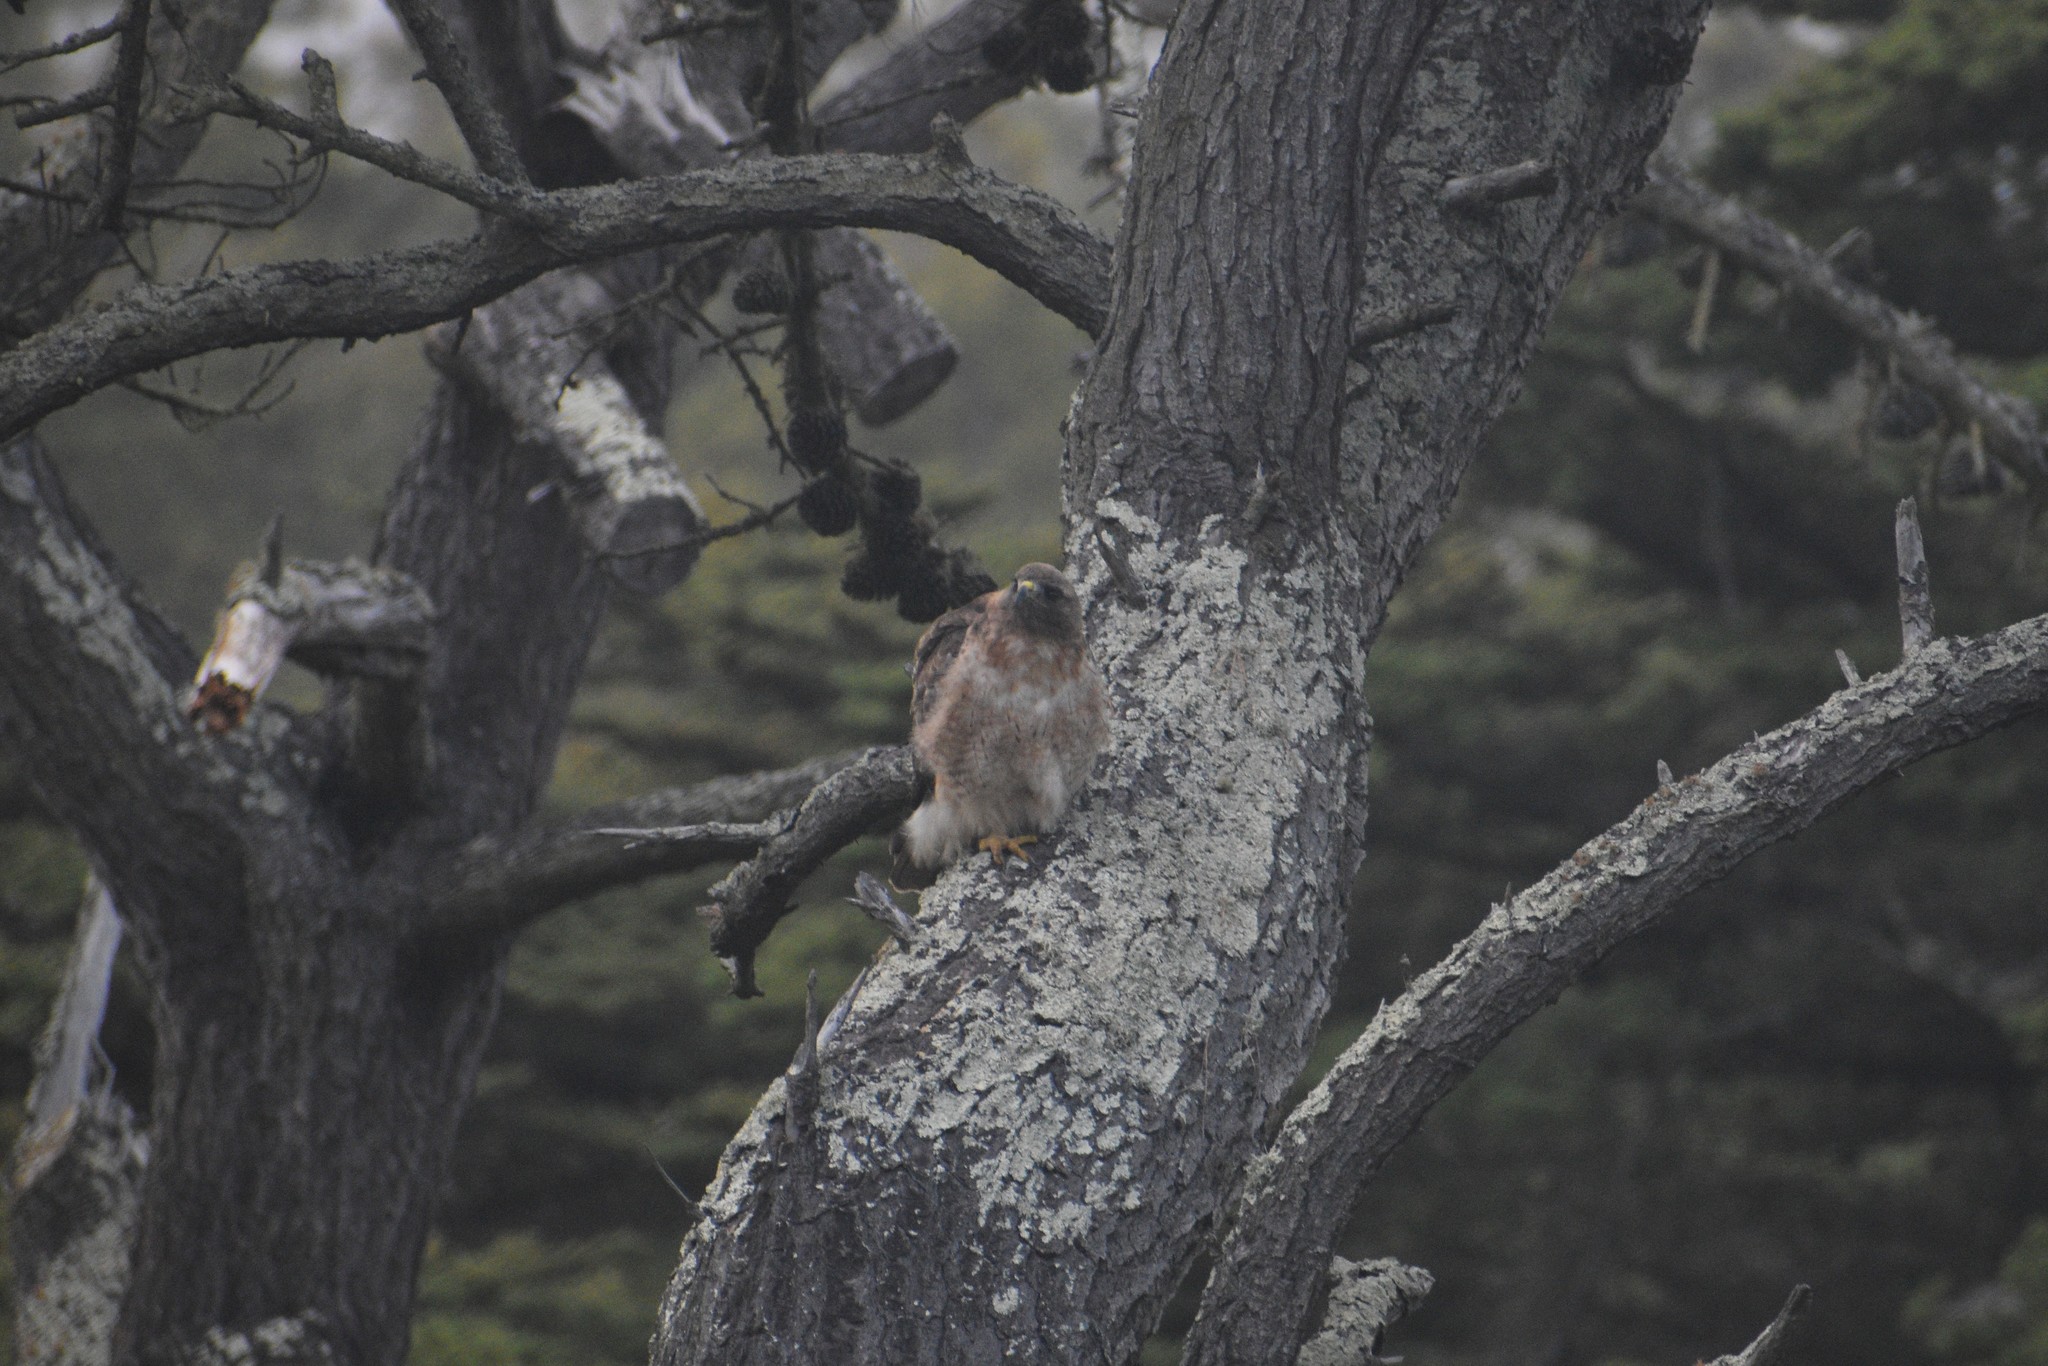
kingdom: Animalia
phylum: Chordata
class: Aves
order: Accipitriformes
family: Accipitridae
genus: Buteo
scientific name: Buteo jamaicensis
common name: Red-tailed hawk
